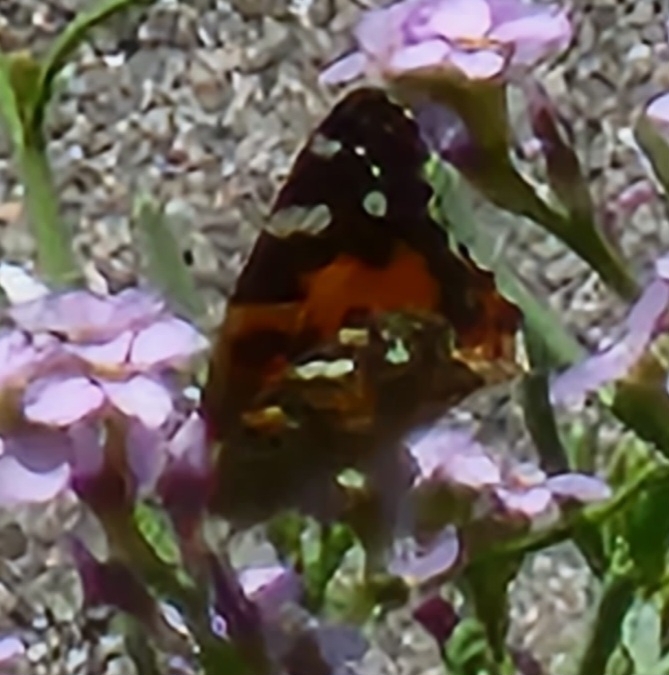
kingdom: Animalia
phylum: Arthropoda
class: Insecta
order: Lepidoptera
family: Nymphalidae
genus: Vanessa
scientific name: Vanessa atalanta
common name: Red admiral
